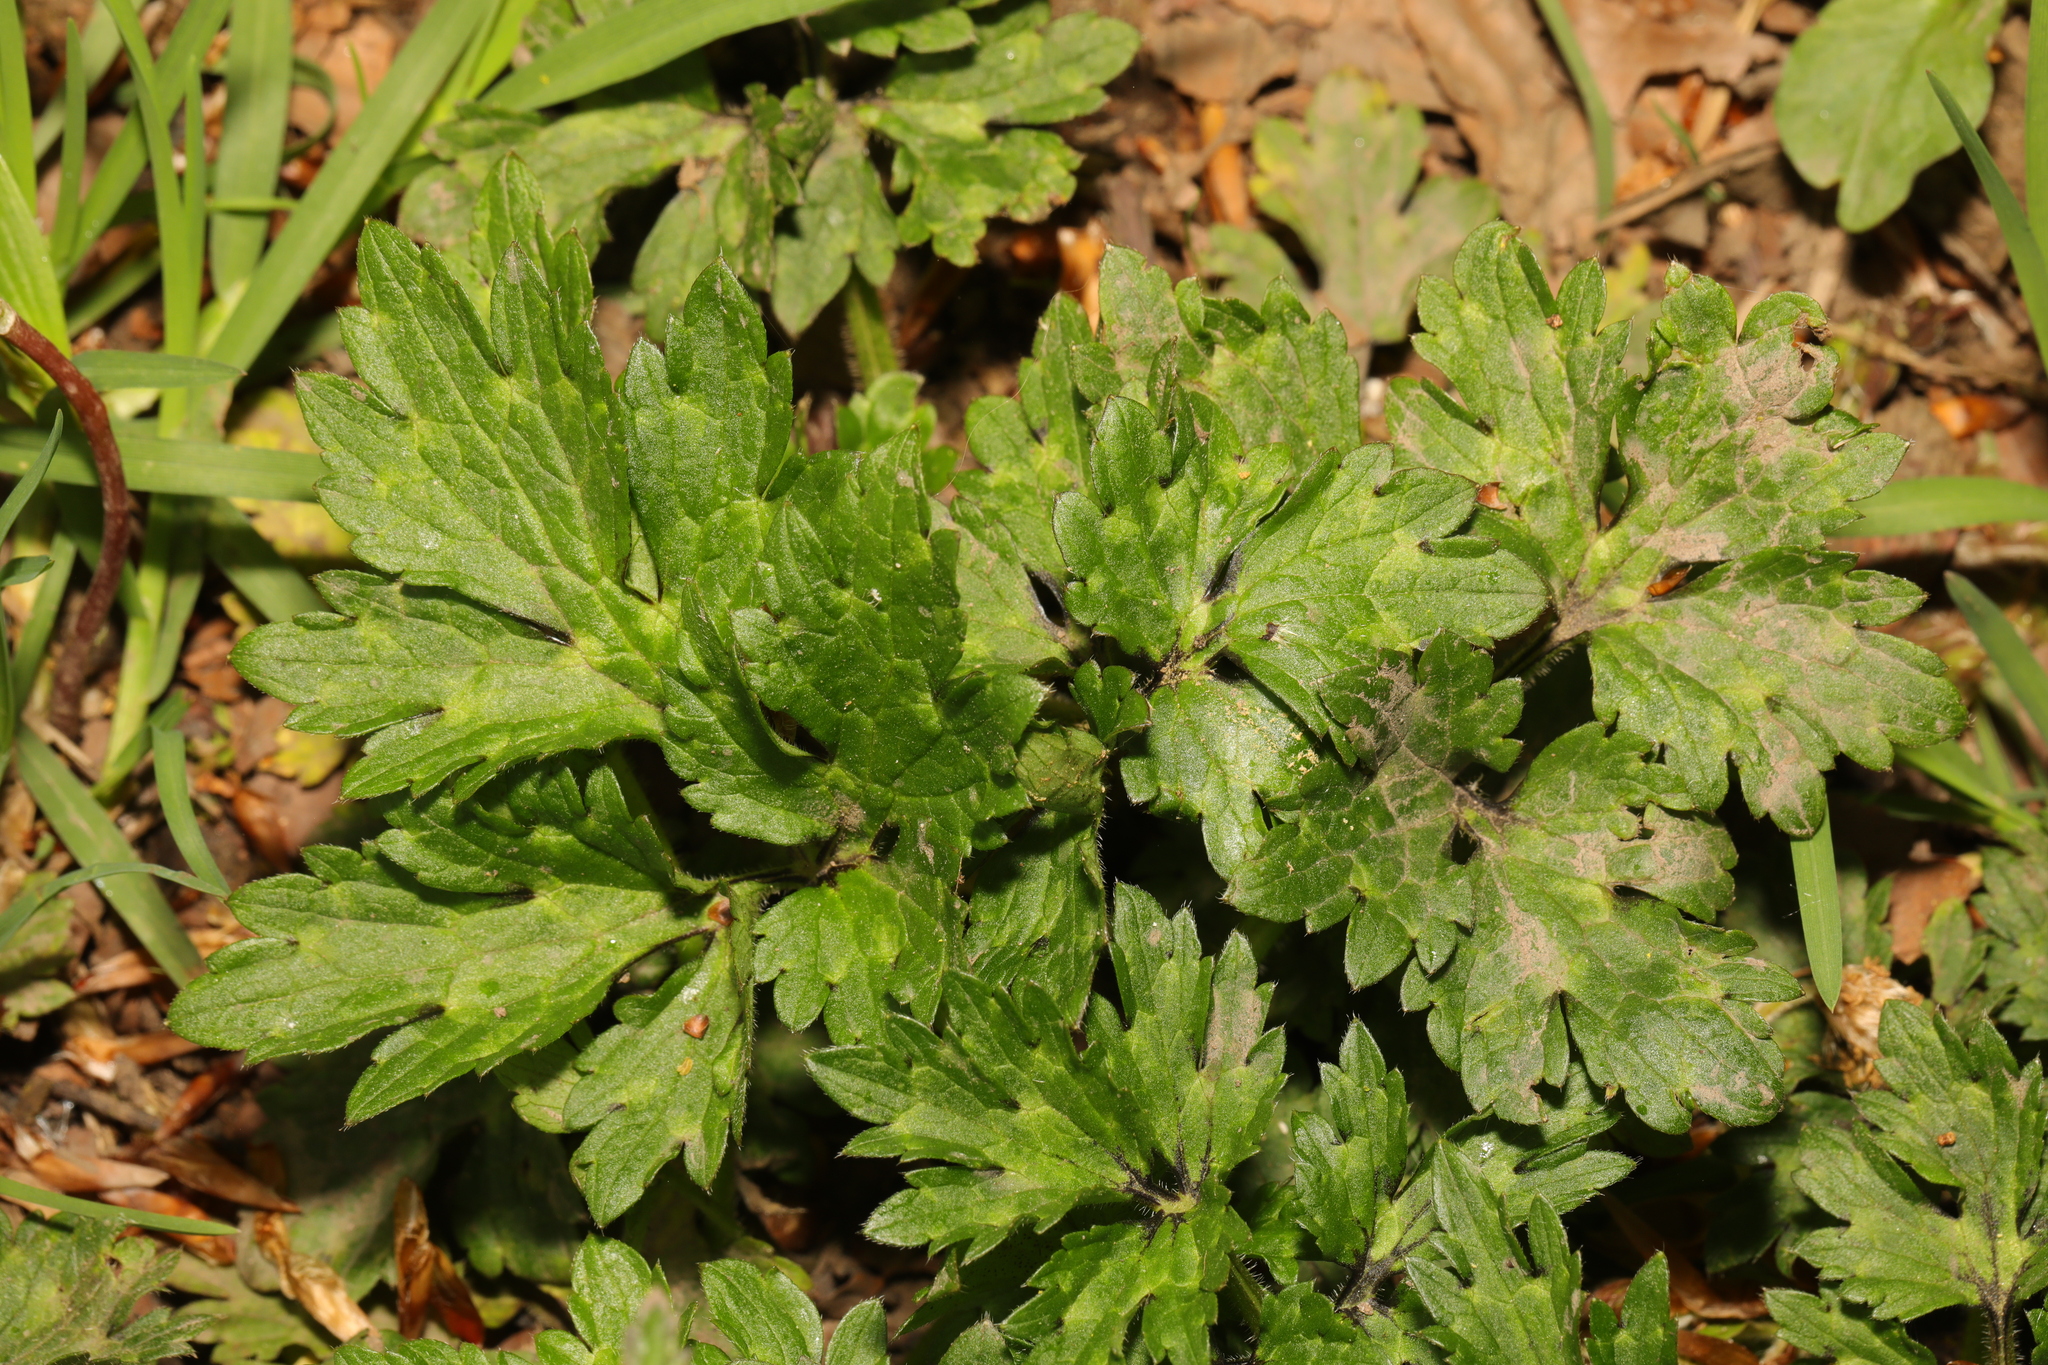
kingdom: Plantae
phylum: Tracheophyta
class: Magnoliopsida
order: Ranunculales
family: Ranunculaceae
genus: Ranunculus
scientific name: Ranunculus repens
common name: Creeping buttercup
